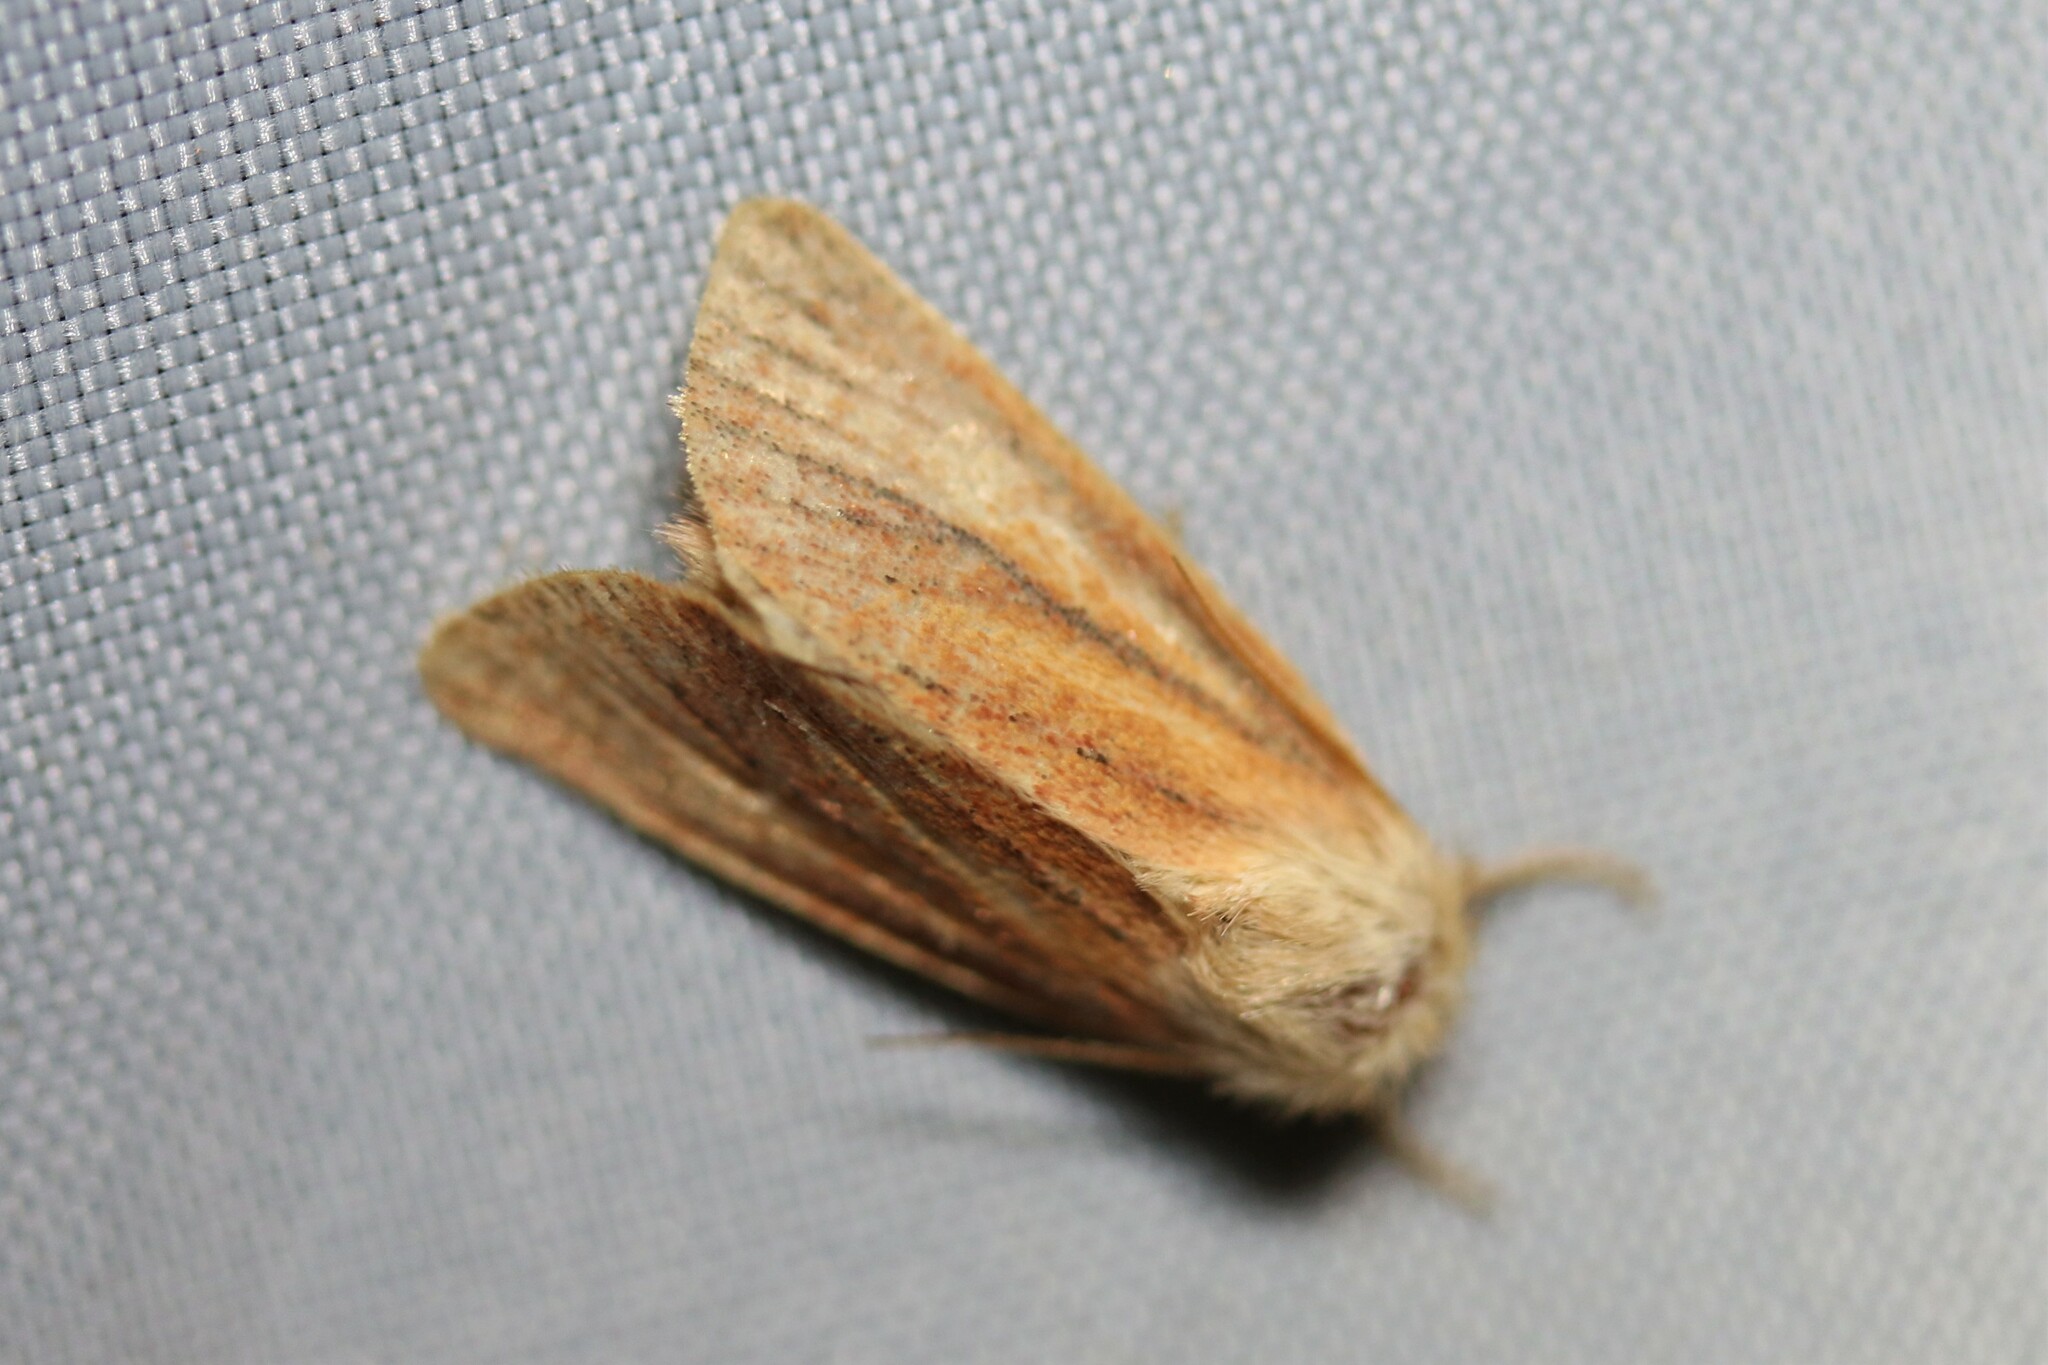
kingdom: Animalia
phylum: Arthropoda
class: Insecta
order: Lepidoptera
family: Noctuidae
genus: Denticucullus
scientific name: Denticucullus pygmina
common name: Small wainscot
